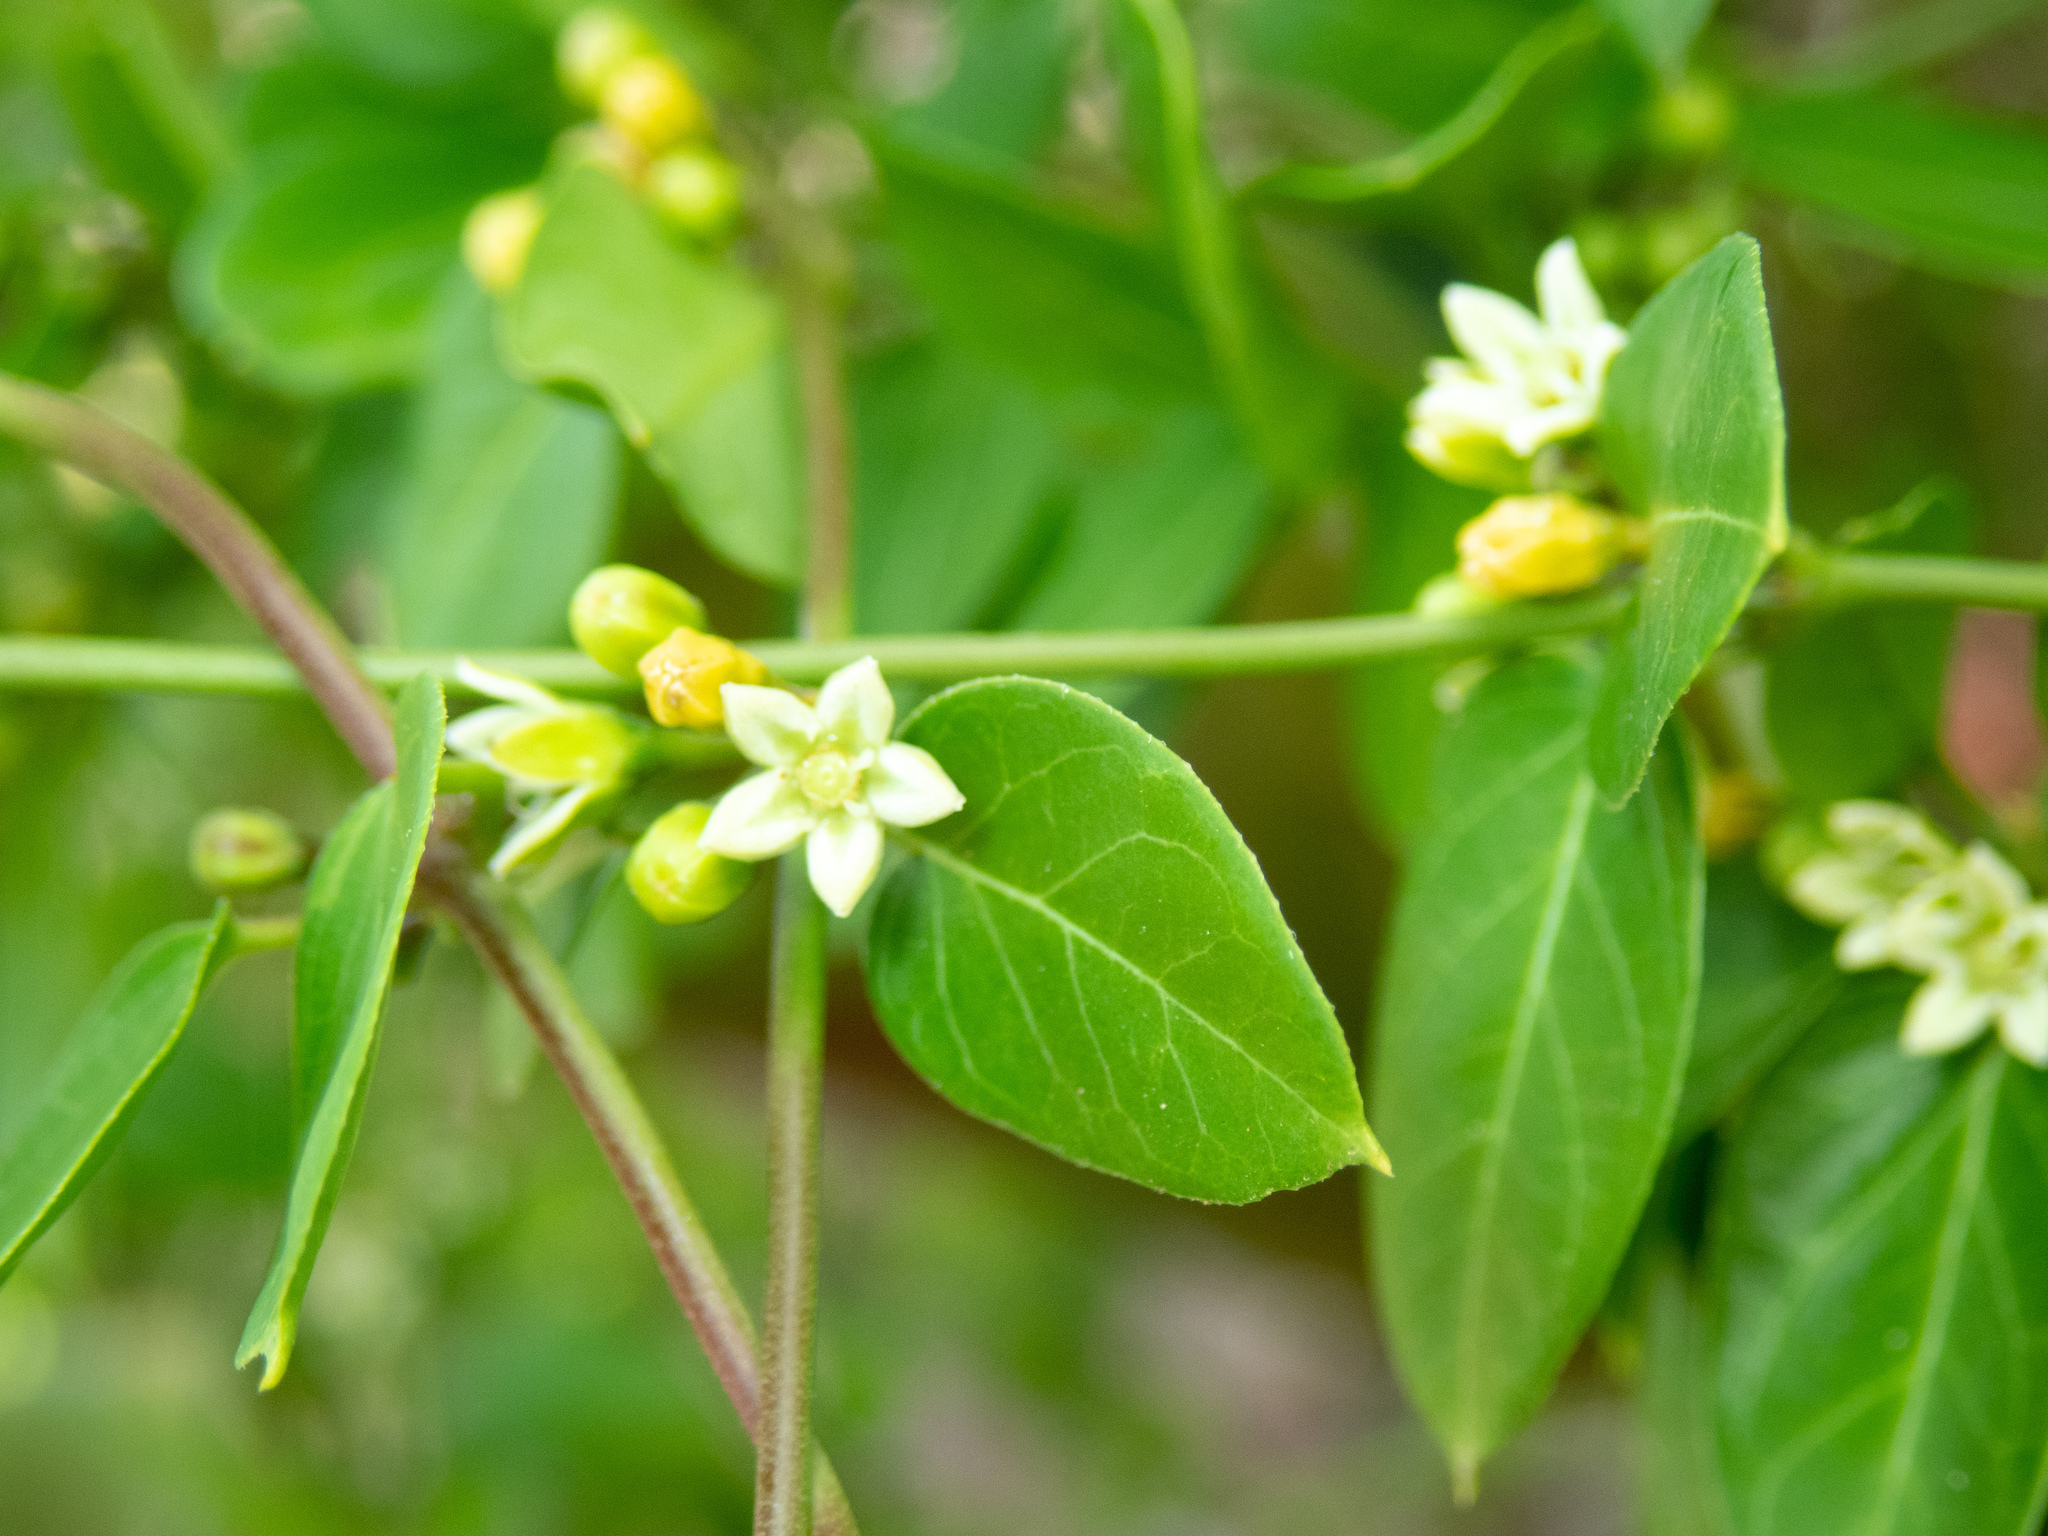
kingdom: Plantae
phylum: Tracheophyta
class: Magnoliopsida
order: Gentianales
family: Apocynaceae
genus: Metastelma
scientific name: Metastelma decipiens
